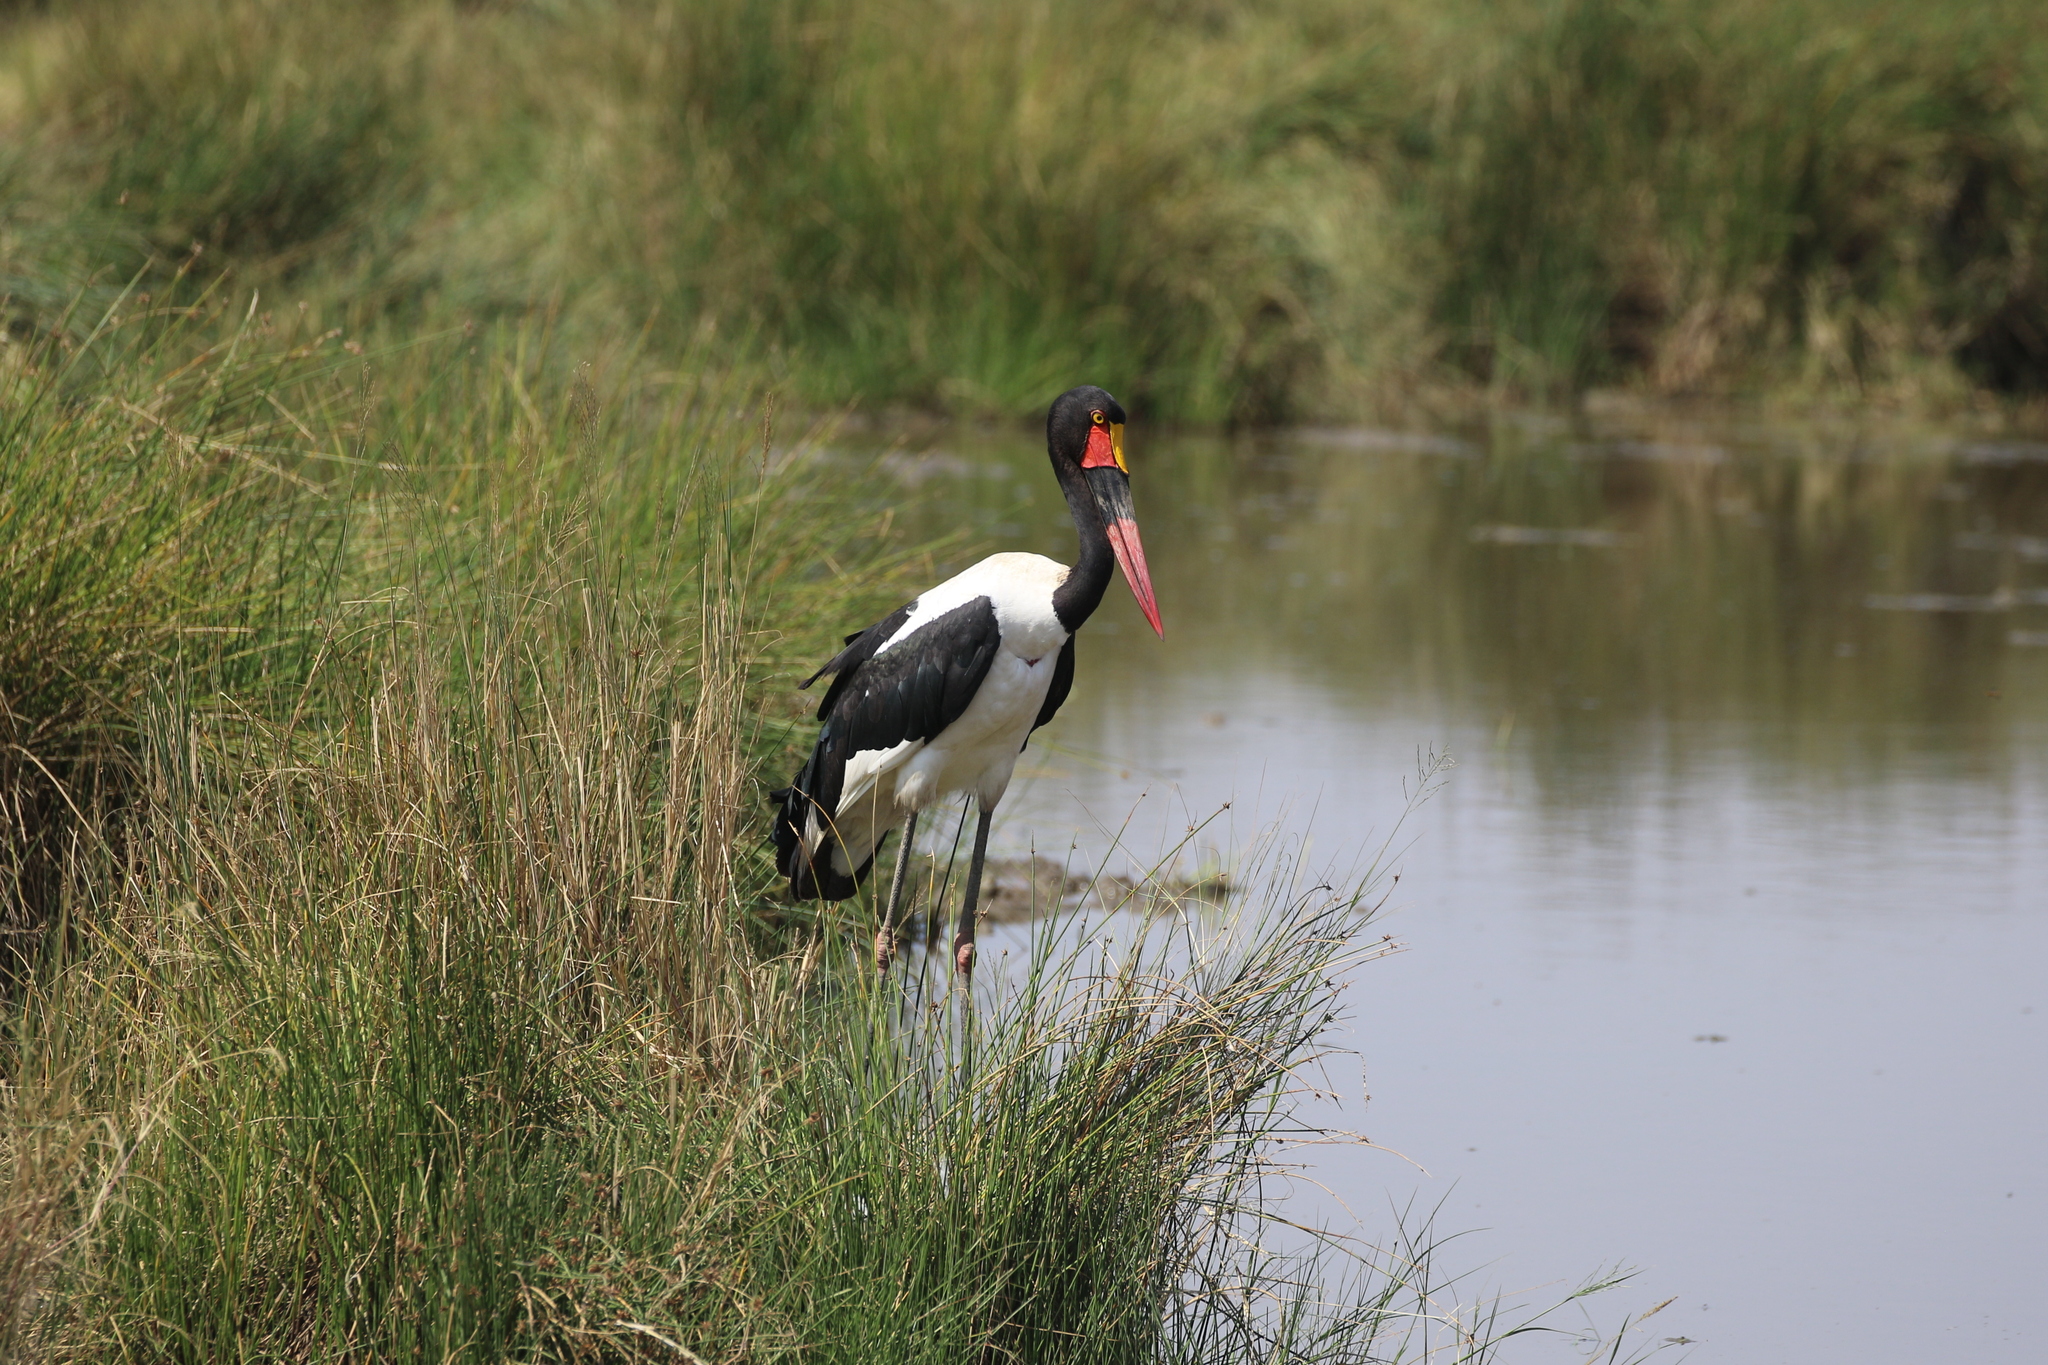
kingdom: Animalia
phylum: Chordata
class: Aves
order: Ciconiiformes
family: Ciconiidae
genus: Ephippiorhynchus
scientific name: Ephippiorhynchus senegalensis
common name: Saddle-billed stork
